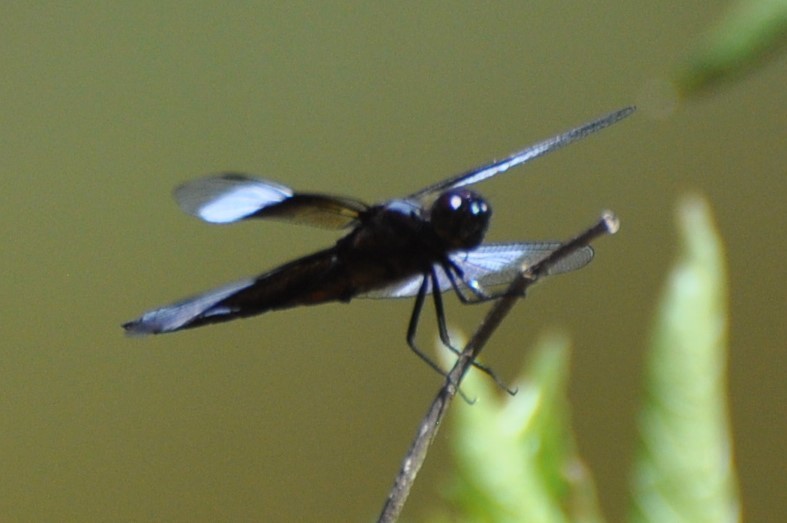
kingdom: Animalia
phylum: Arthropoda
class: Insecta
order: Odonata
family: Libellulidae
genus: Libellula
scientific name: Libellula luctuosa
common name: Widow skimmer
